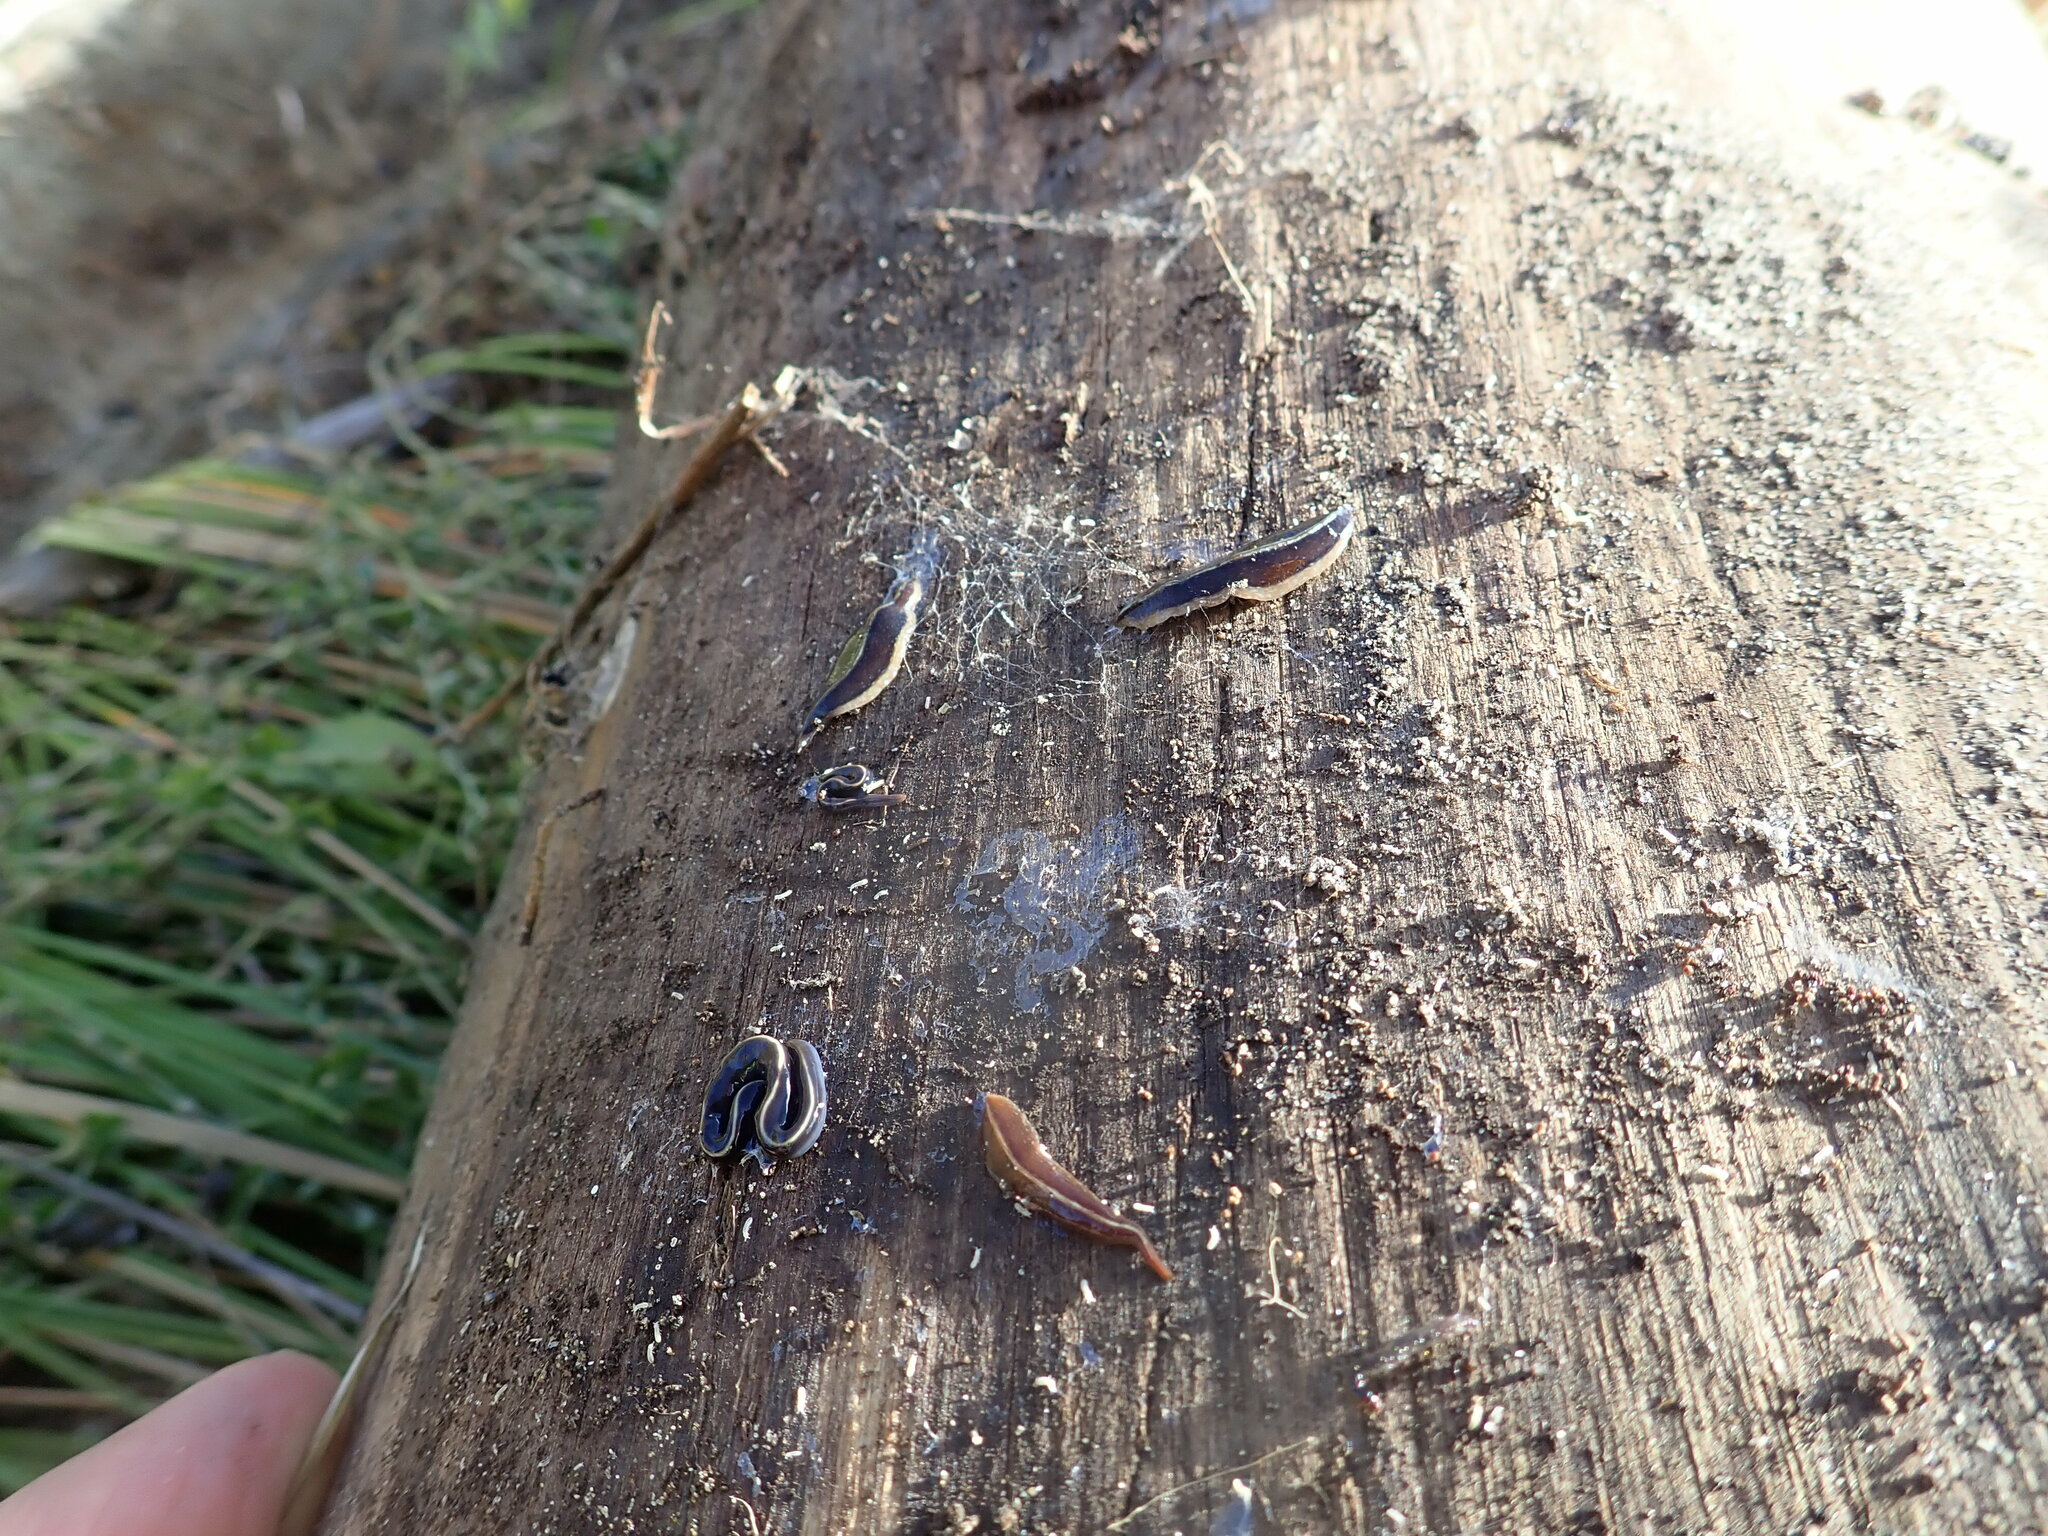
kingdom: Animalia
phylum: Platyhelminthes
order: Tricladida
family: Geoplanidae
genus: Newzealandia
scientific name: Newzealandia graffii
